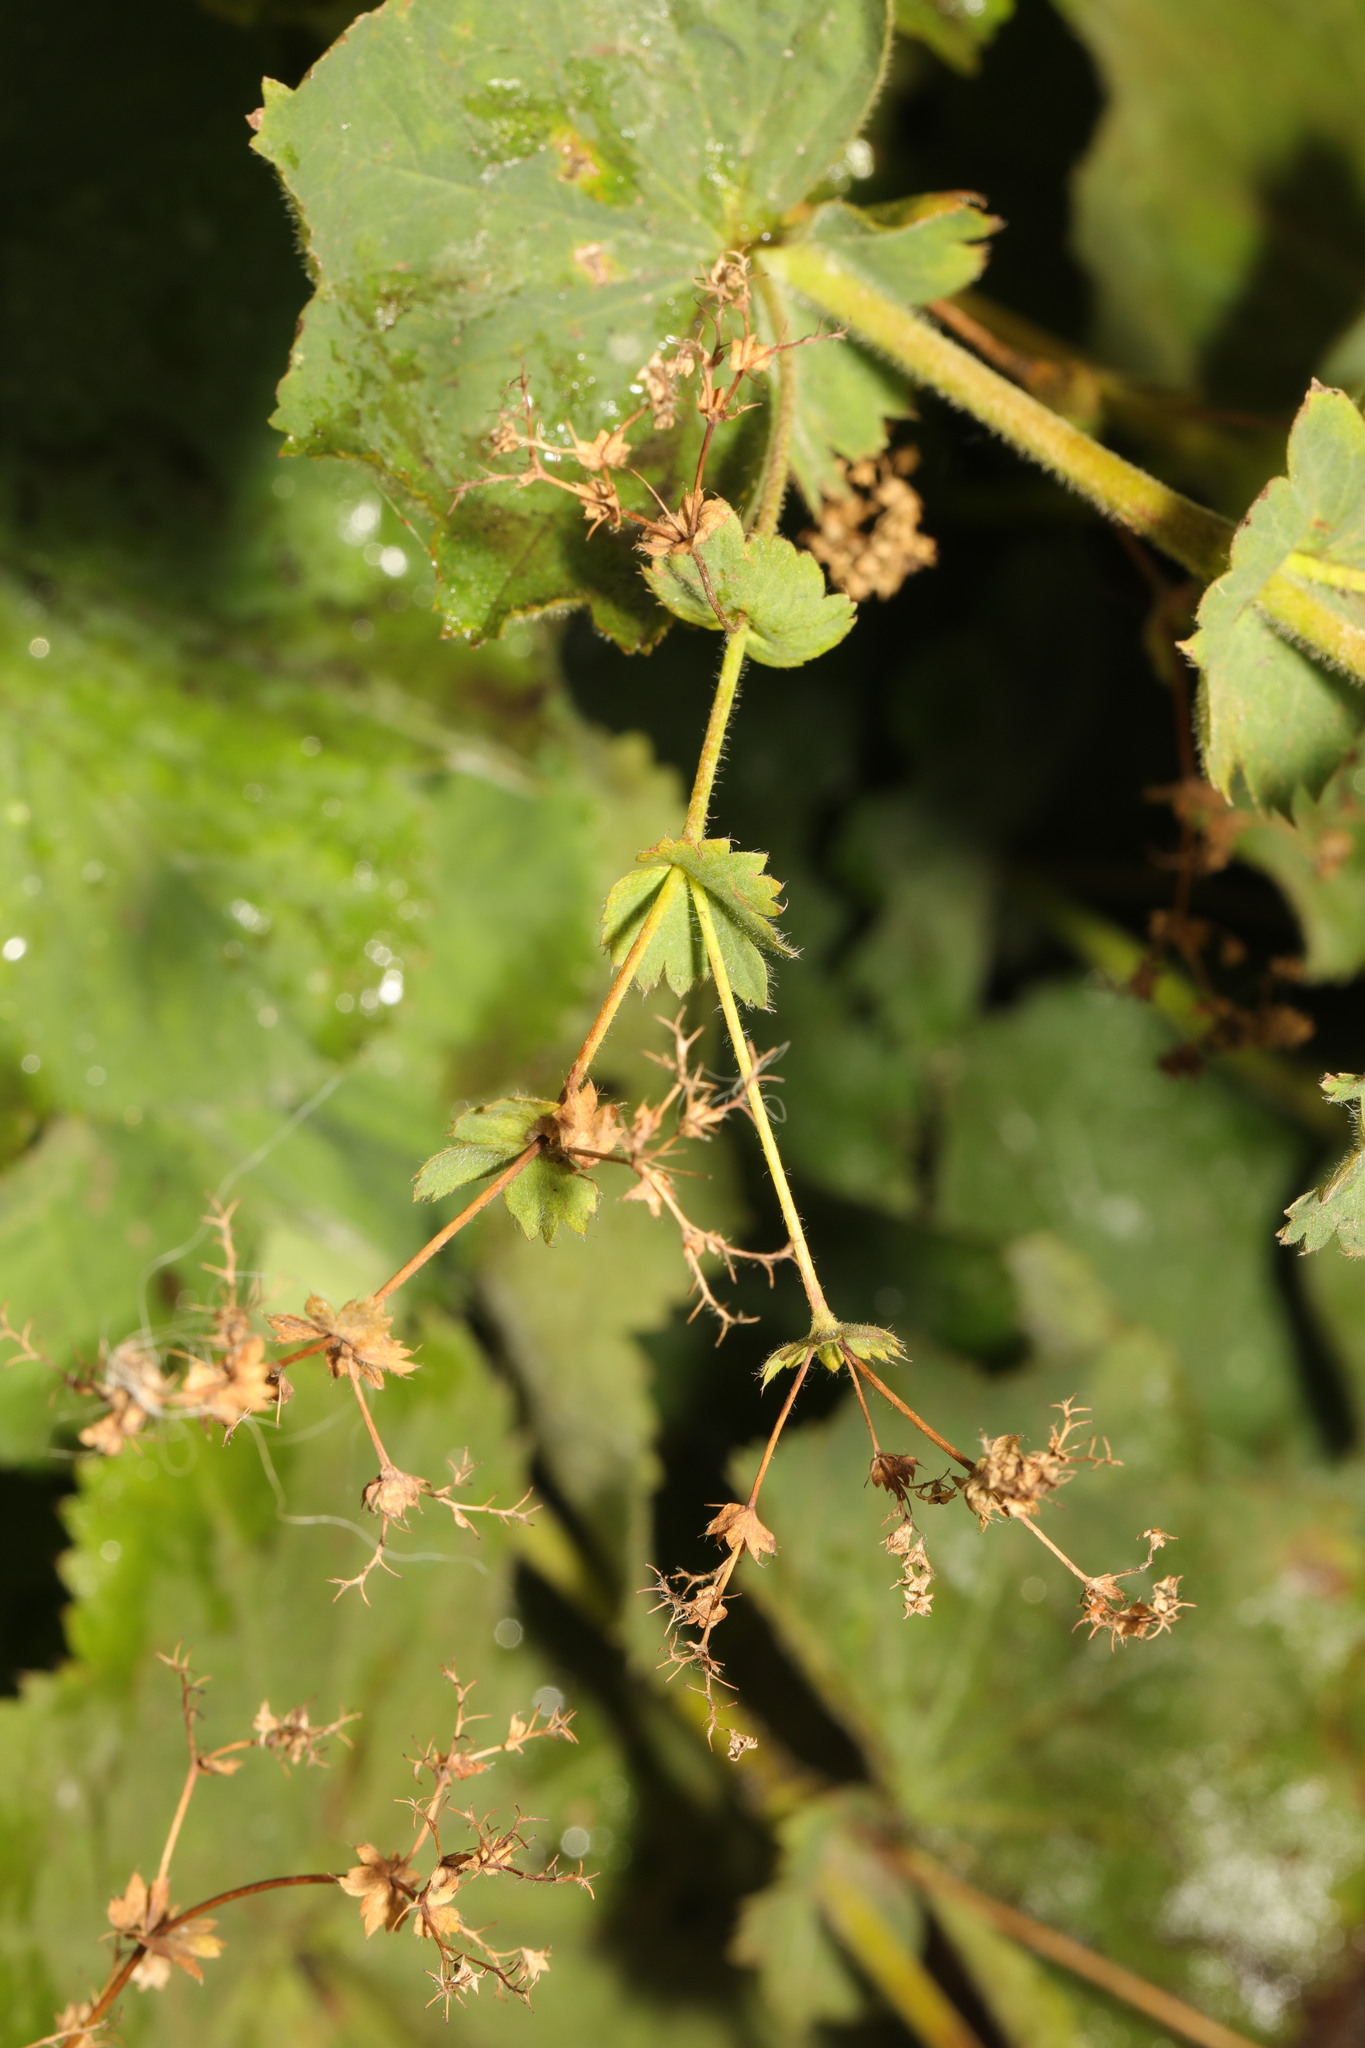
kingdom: Plantae
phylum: Tracheophyta
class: Magnoliopsida
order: Rosales
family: Rosaceae
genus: Alchemilla
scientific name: Alchemilla mollis
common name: Lady's-mantle
